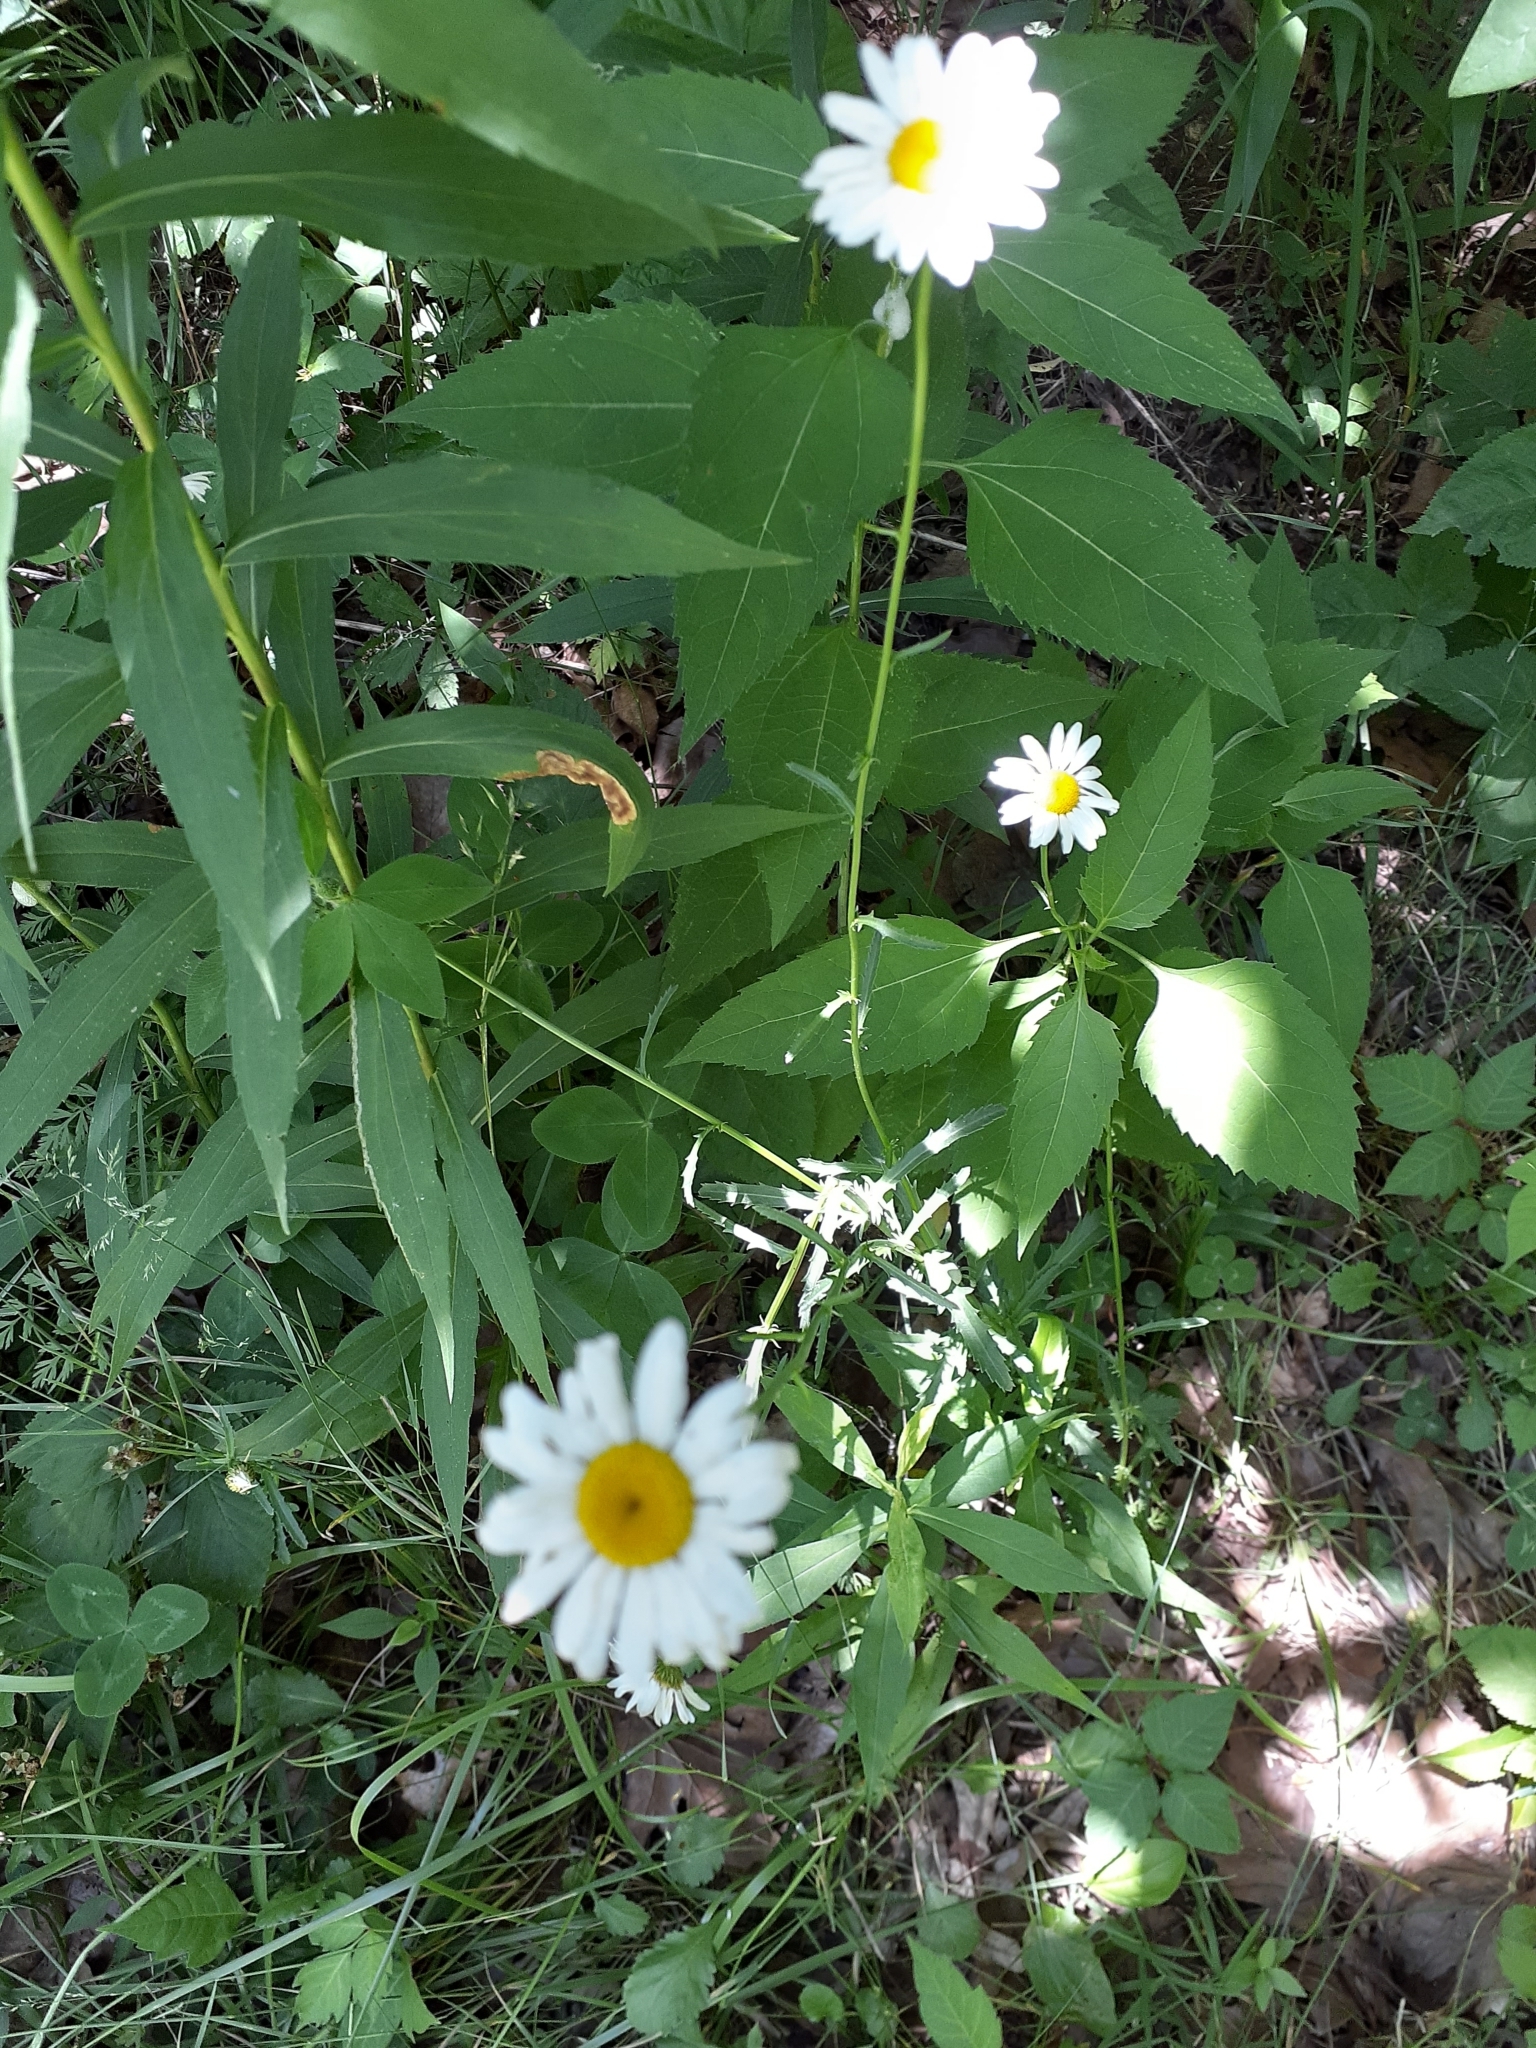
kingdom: Plantae
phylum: Tracheophyta
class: Magnoliopsida
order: Asterales
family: Asteraceae
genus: Leucanthemum
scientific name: Leucanthemum vulgare
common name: Oxeye daisy
